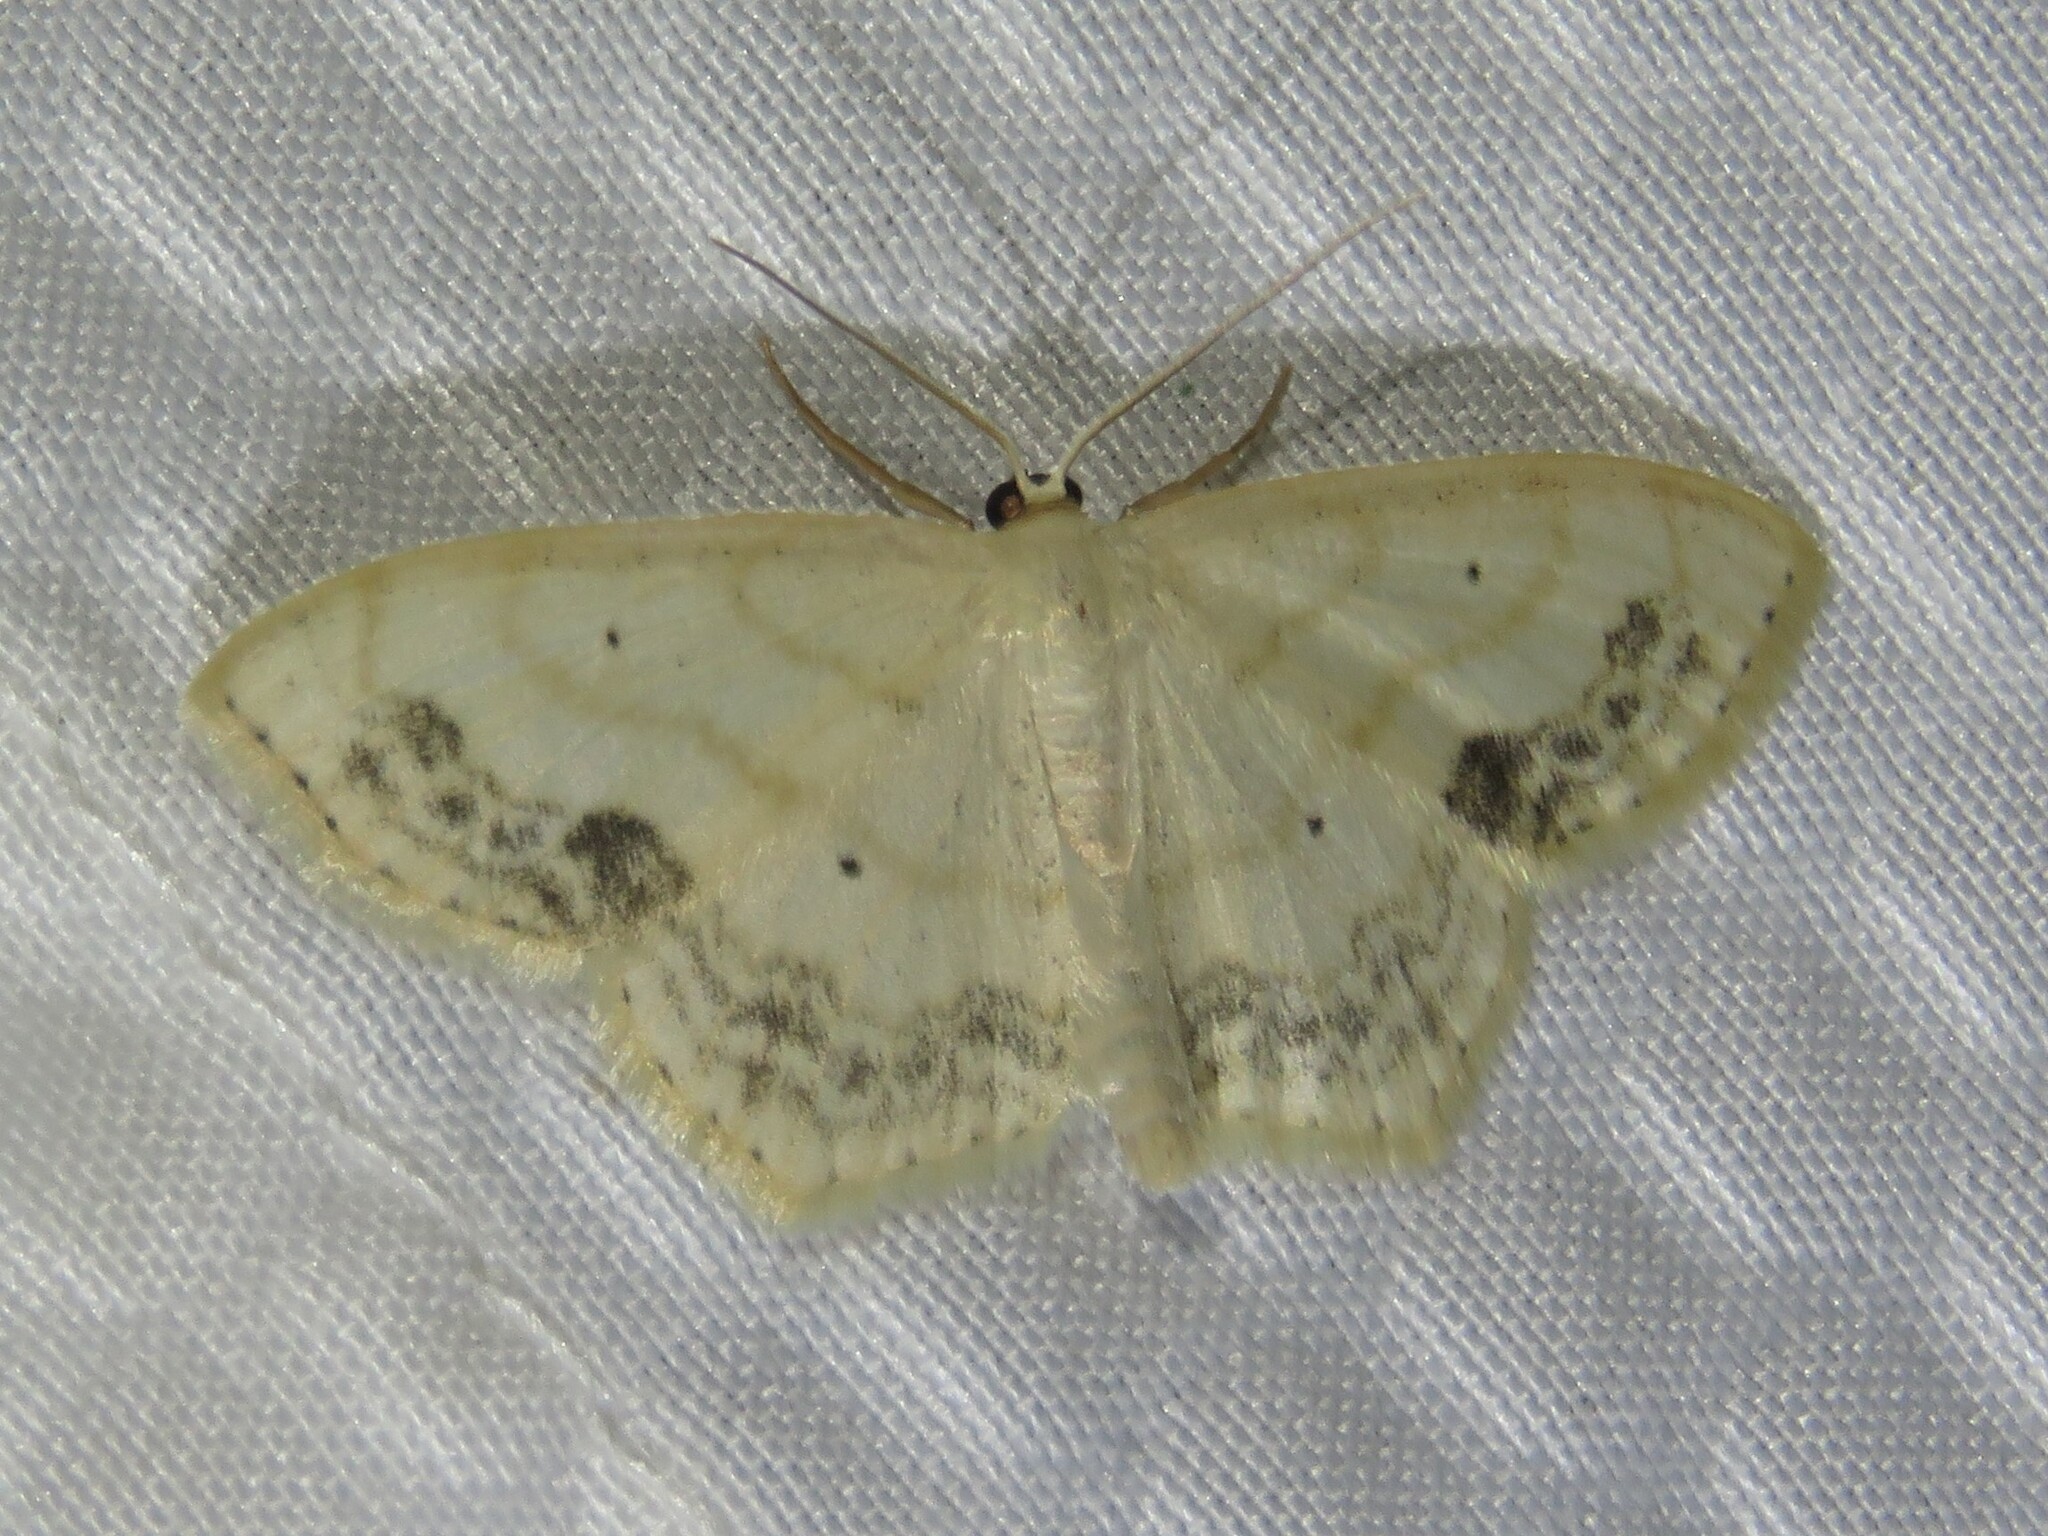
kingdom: Animalia
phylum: Arthropoda
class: Insecta
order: Lepidoptera
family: Geometridae
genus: Scopula
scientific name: Scopula limboundata
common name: Large lace border
